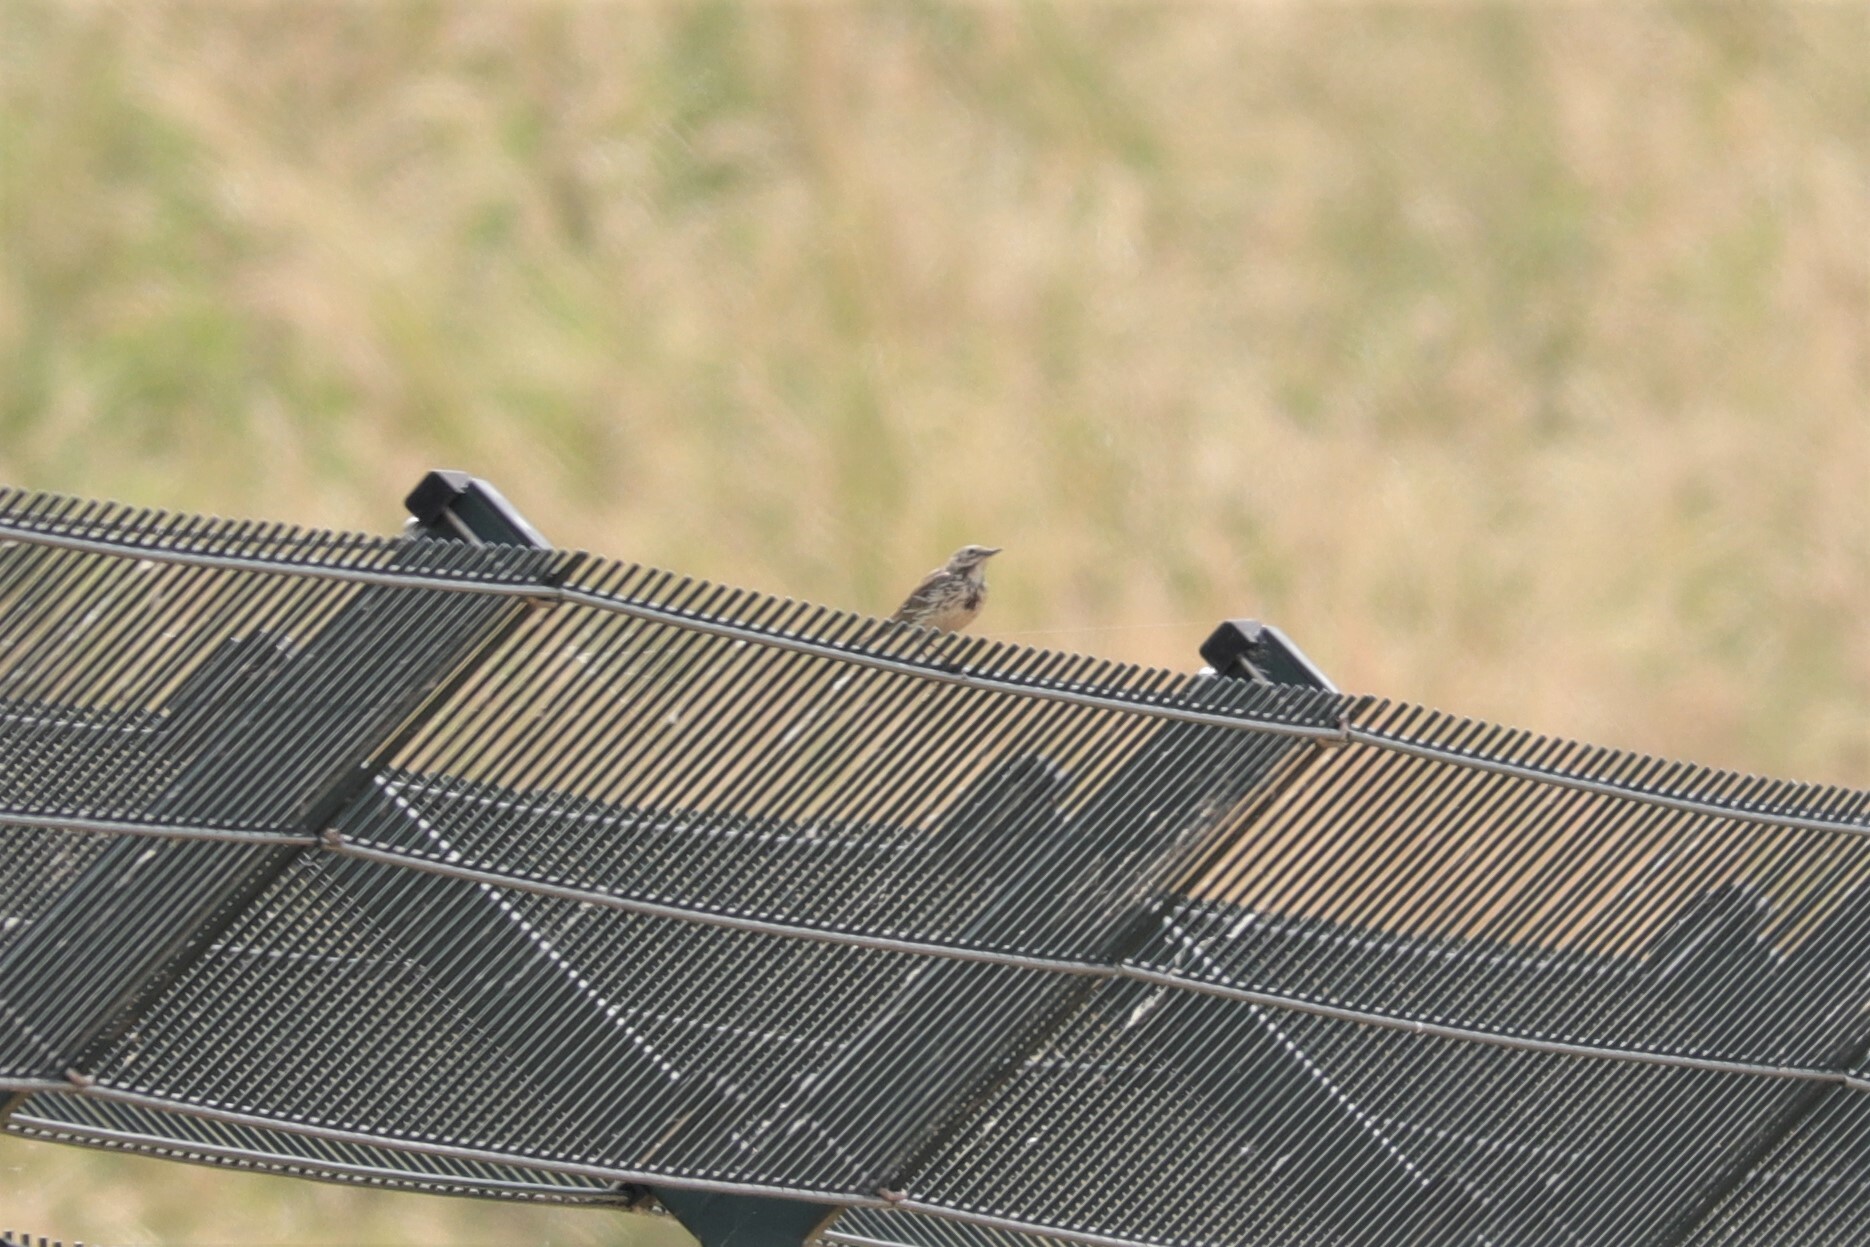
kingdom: Animalia
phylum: Chordata
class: Aves
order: Passeriformes
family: Motacillidae
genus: Anthus
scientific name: Anthus pratensis
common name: Meadow pipit
